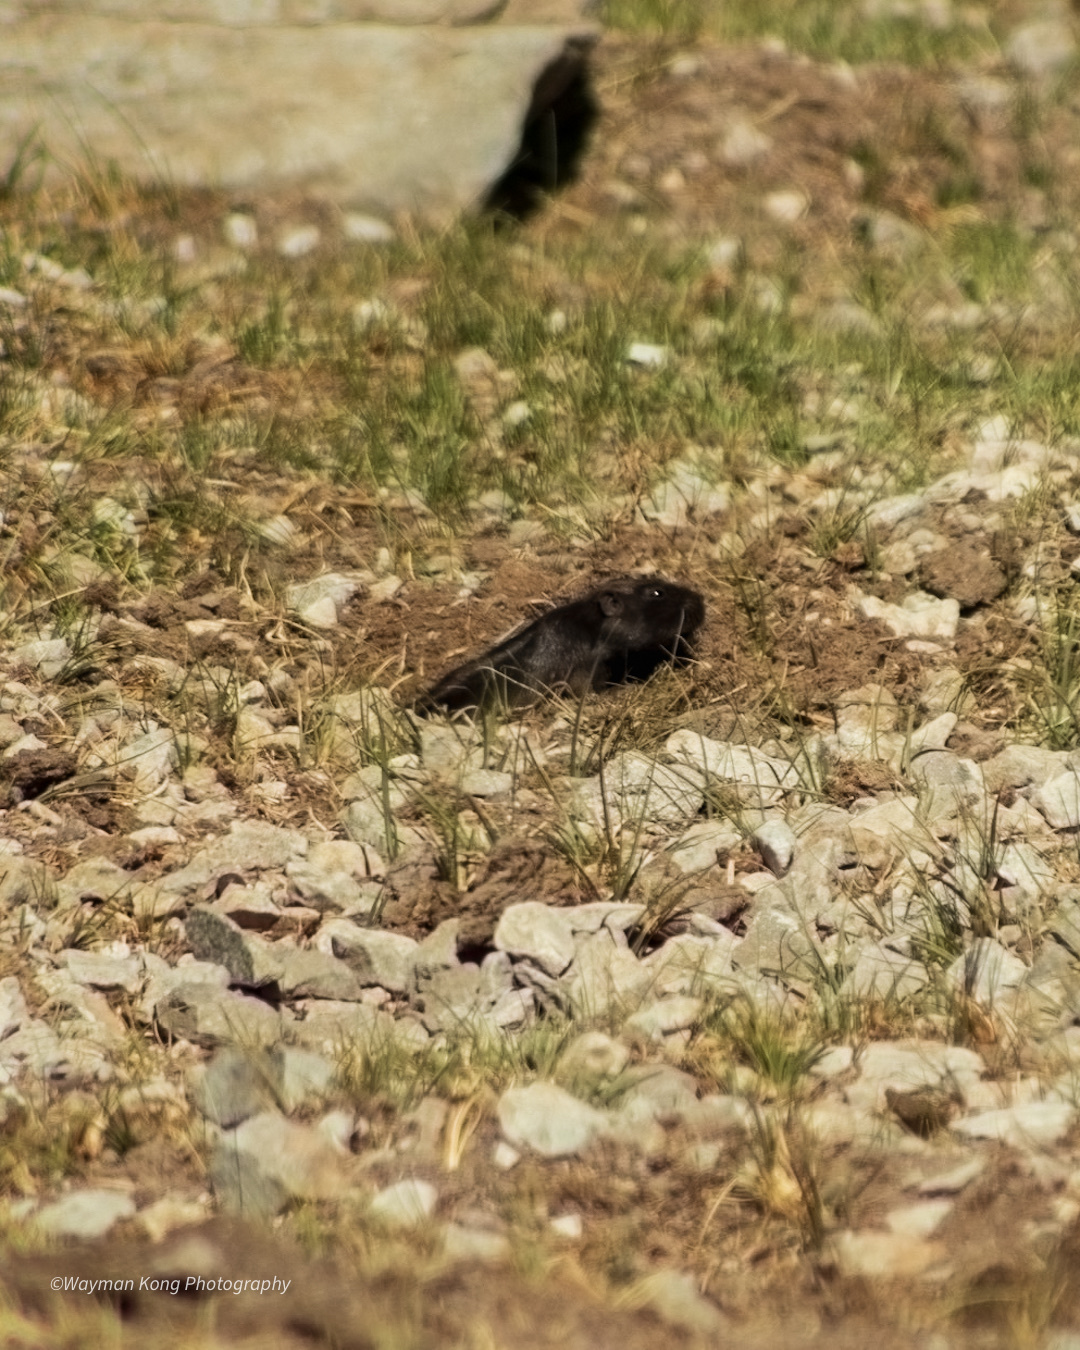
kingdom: Animalia
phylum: Chordata
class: Mammalia
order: Rodentia
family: Octodontidae
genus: Spalacopus
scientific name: Spalacopus cyanus
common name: Coruro
